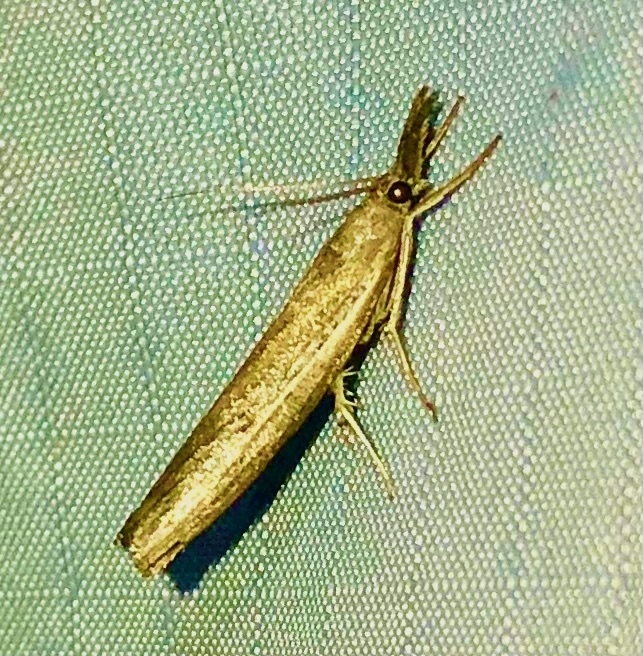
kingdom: Animalia
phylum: Arthropoda
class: Insecta
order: Lepidoptera
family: Crambidae
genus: Fissicrambus
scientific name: Fissicrambus mutabilis
